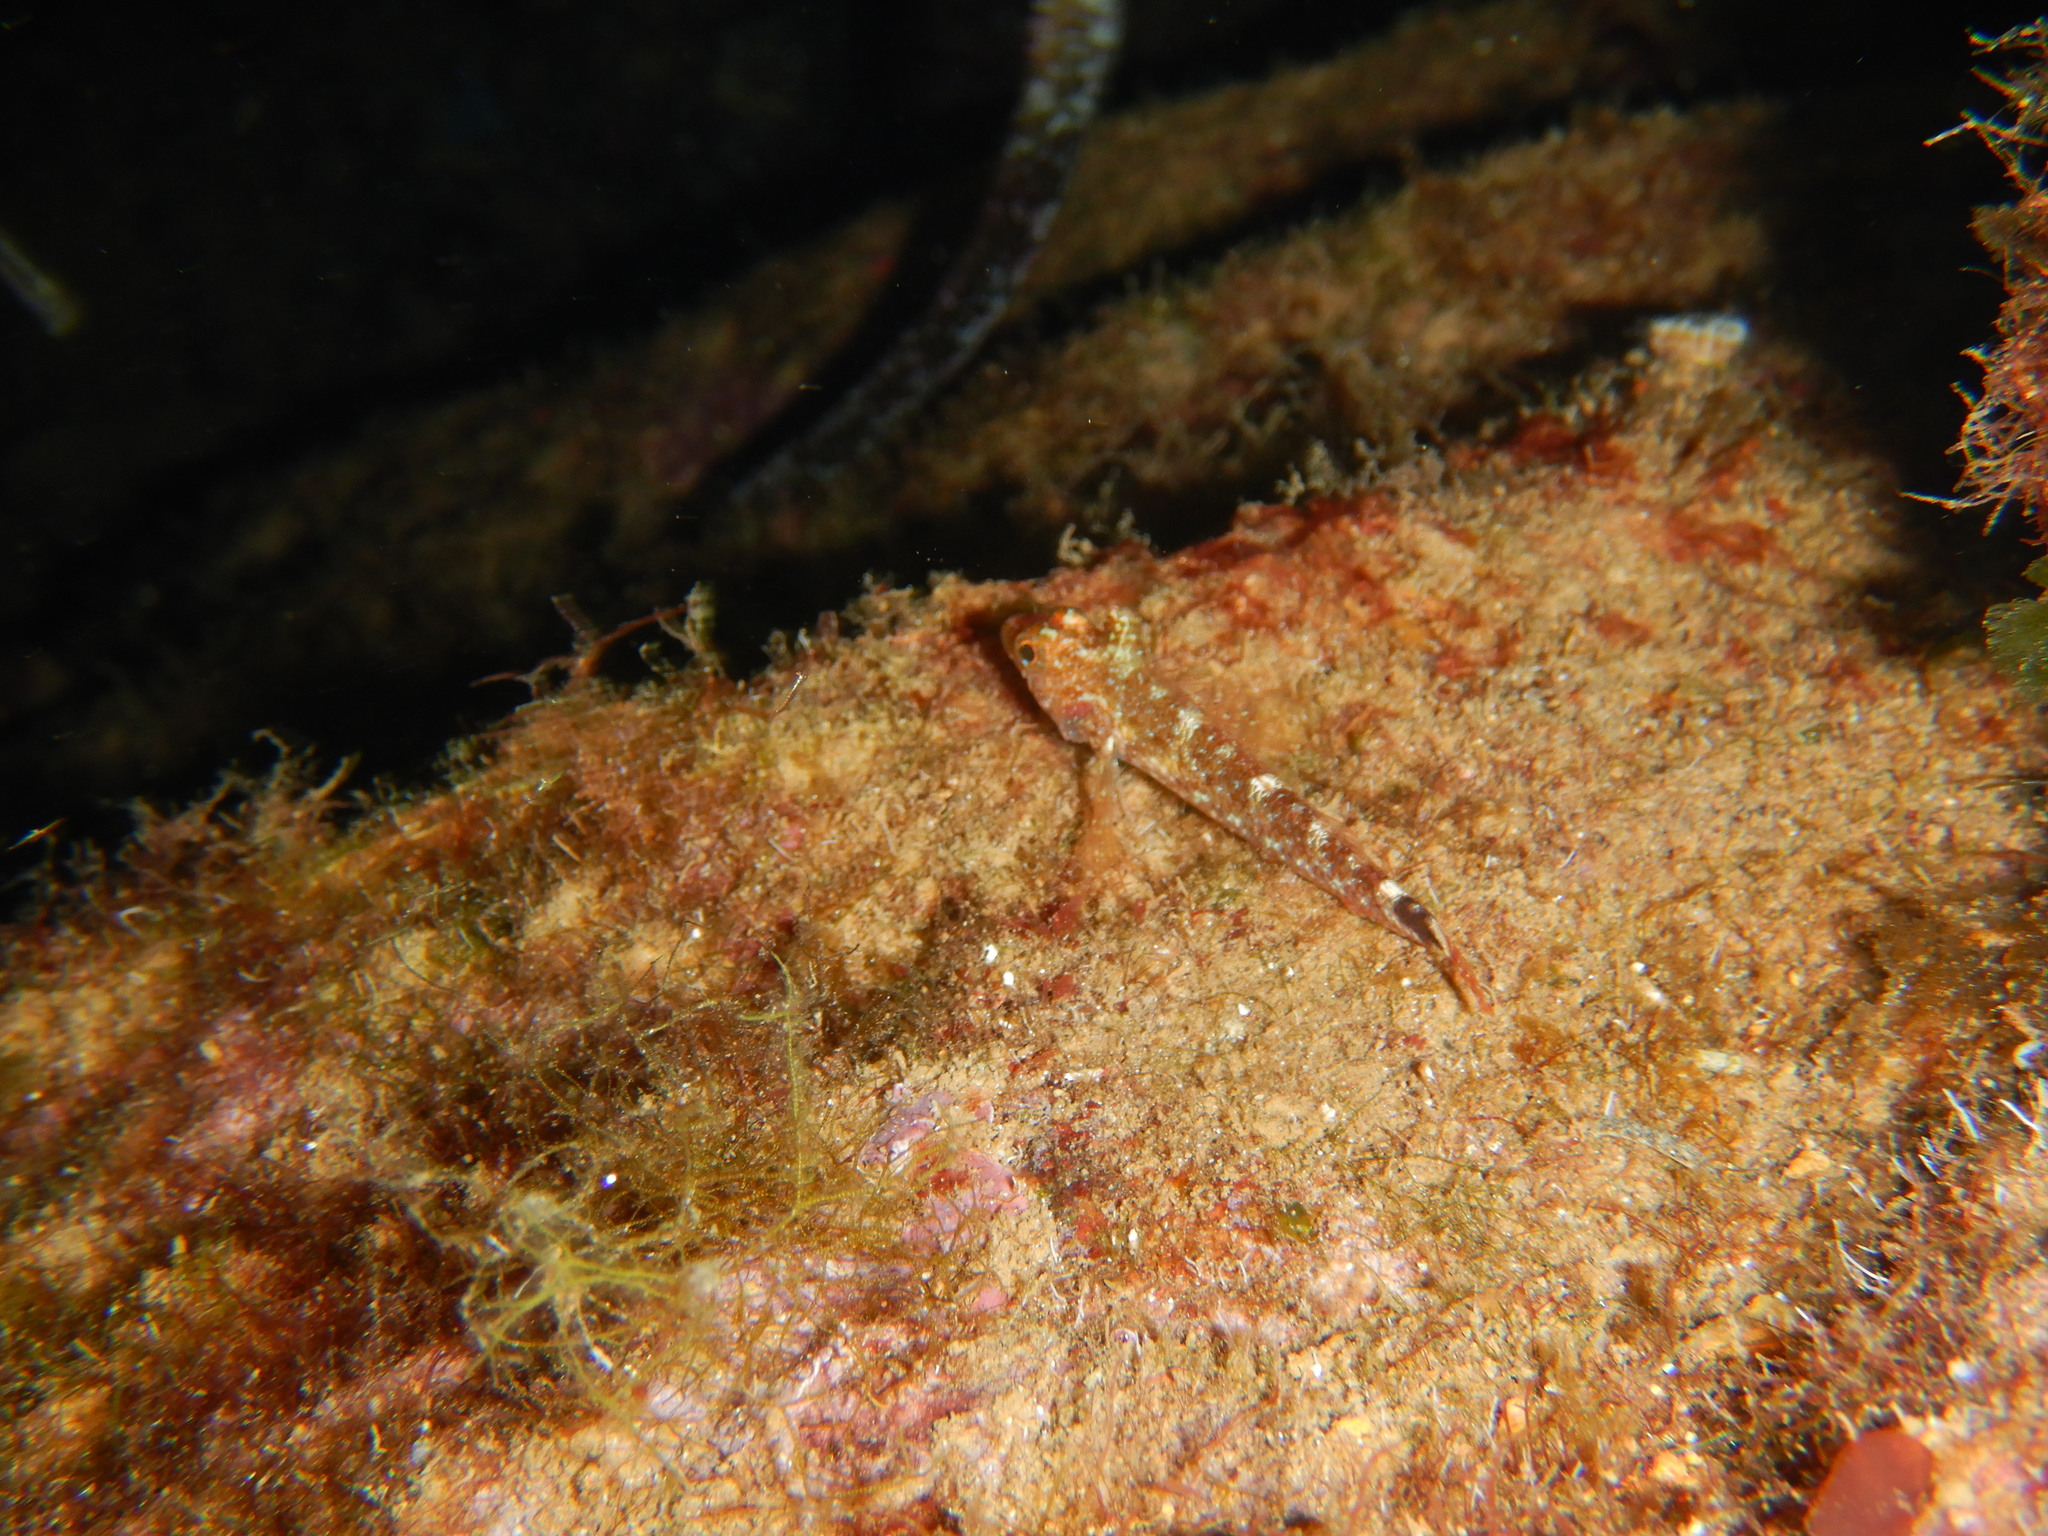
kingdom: Animalia
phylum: Chordata
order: Perciformes
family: Tripterygiidae
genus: Tripterygion
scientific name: Tripterygion delaisi
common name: Black-face blenny
